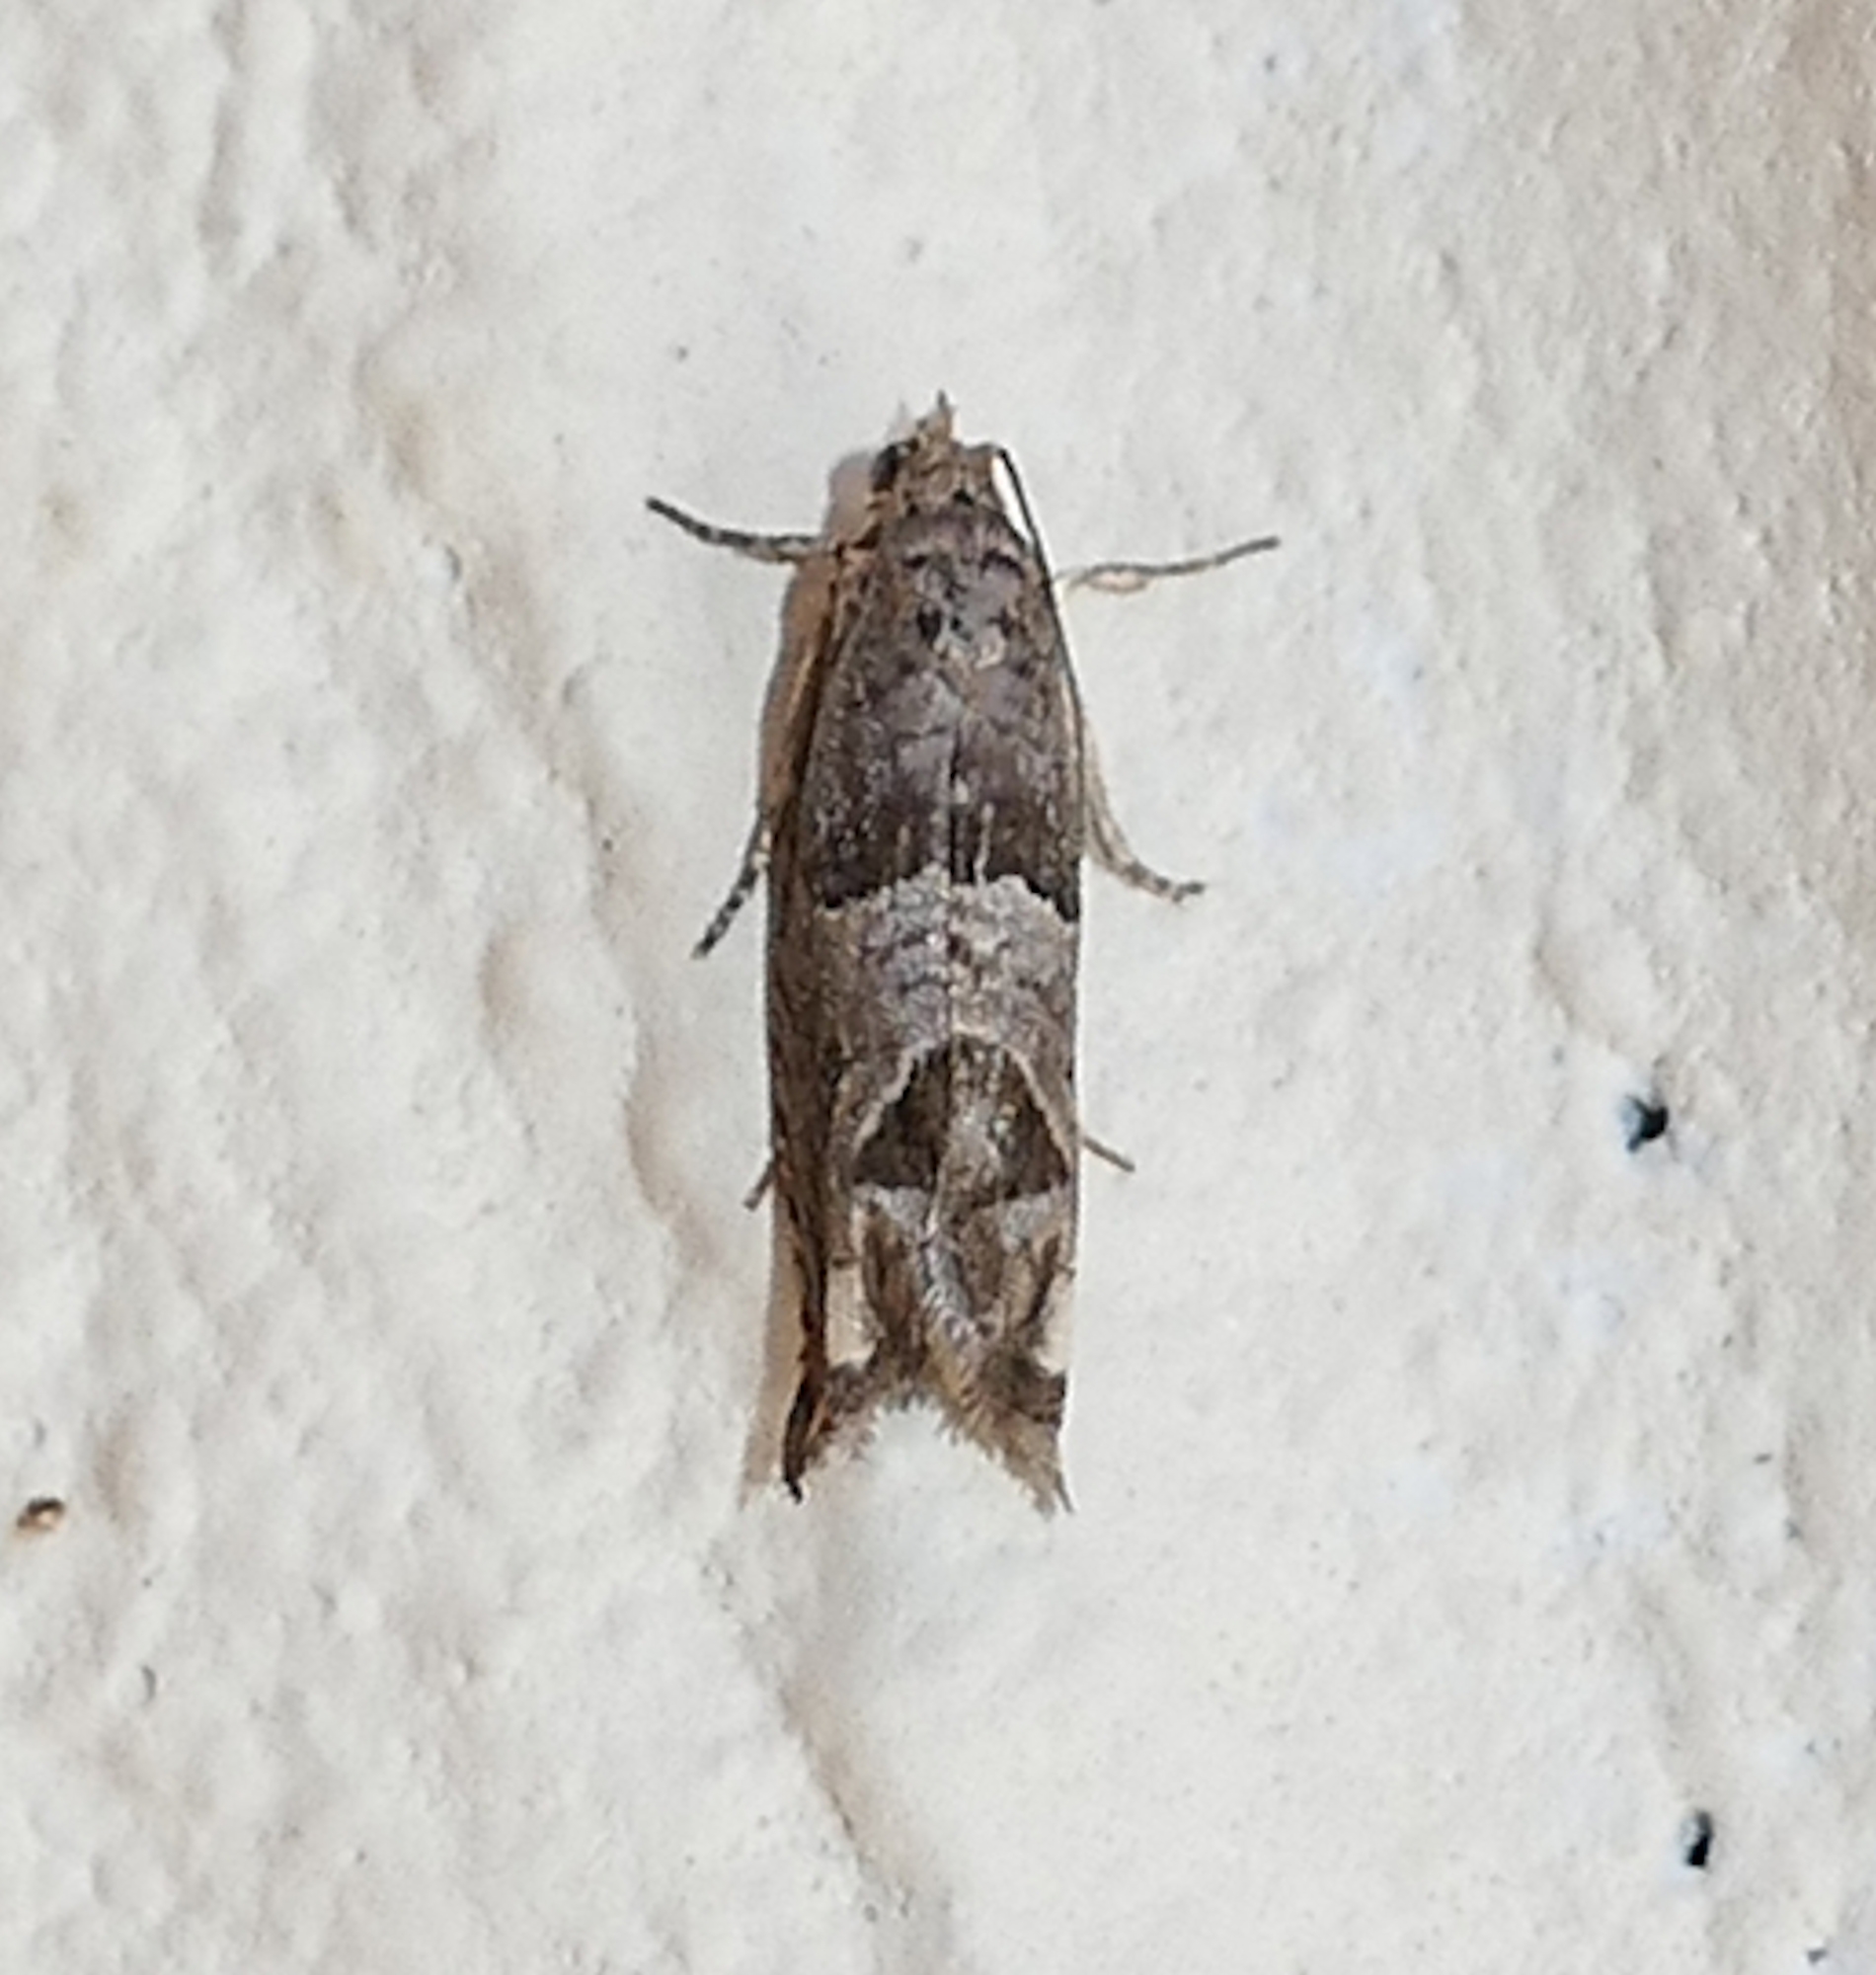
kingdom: Animalia
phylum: Arthropoda
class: Insecta
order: Lepidoptera
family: Tortricidae
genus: Sonia
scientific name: Sonia constrictana
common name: Constricted sonia moth
